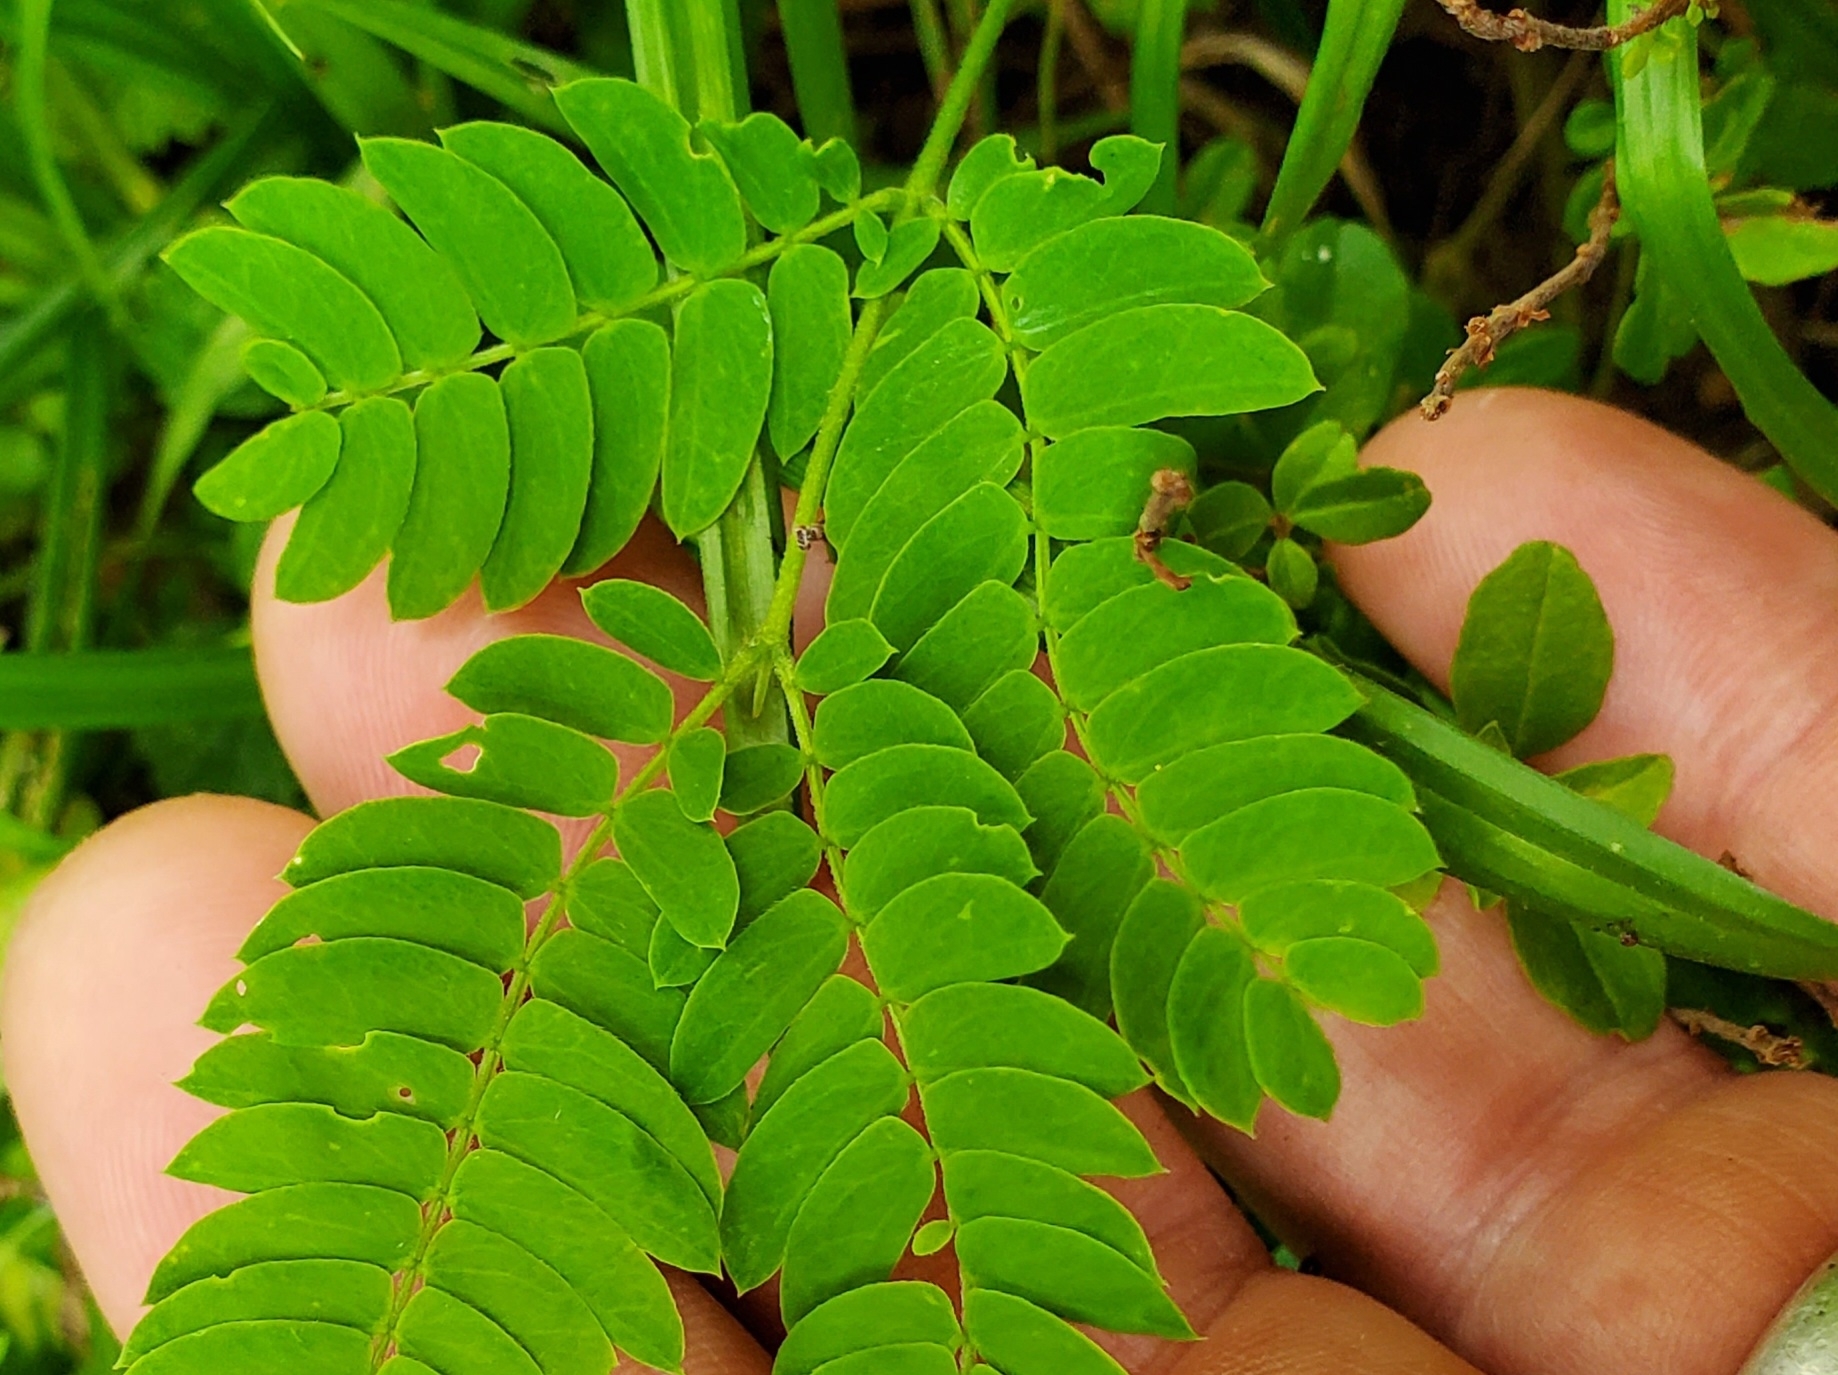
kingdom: Plantae
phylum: Tracheophyta
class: Magnoliopsida
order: Fabales
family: Fabaceae
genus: Albizia
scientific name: Albizia julibrissin
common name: Silktree
